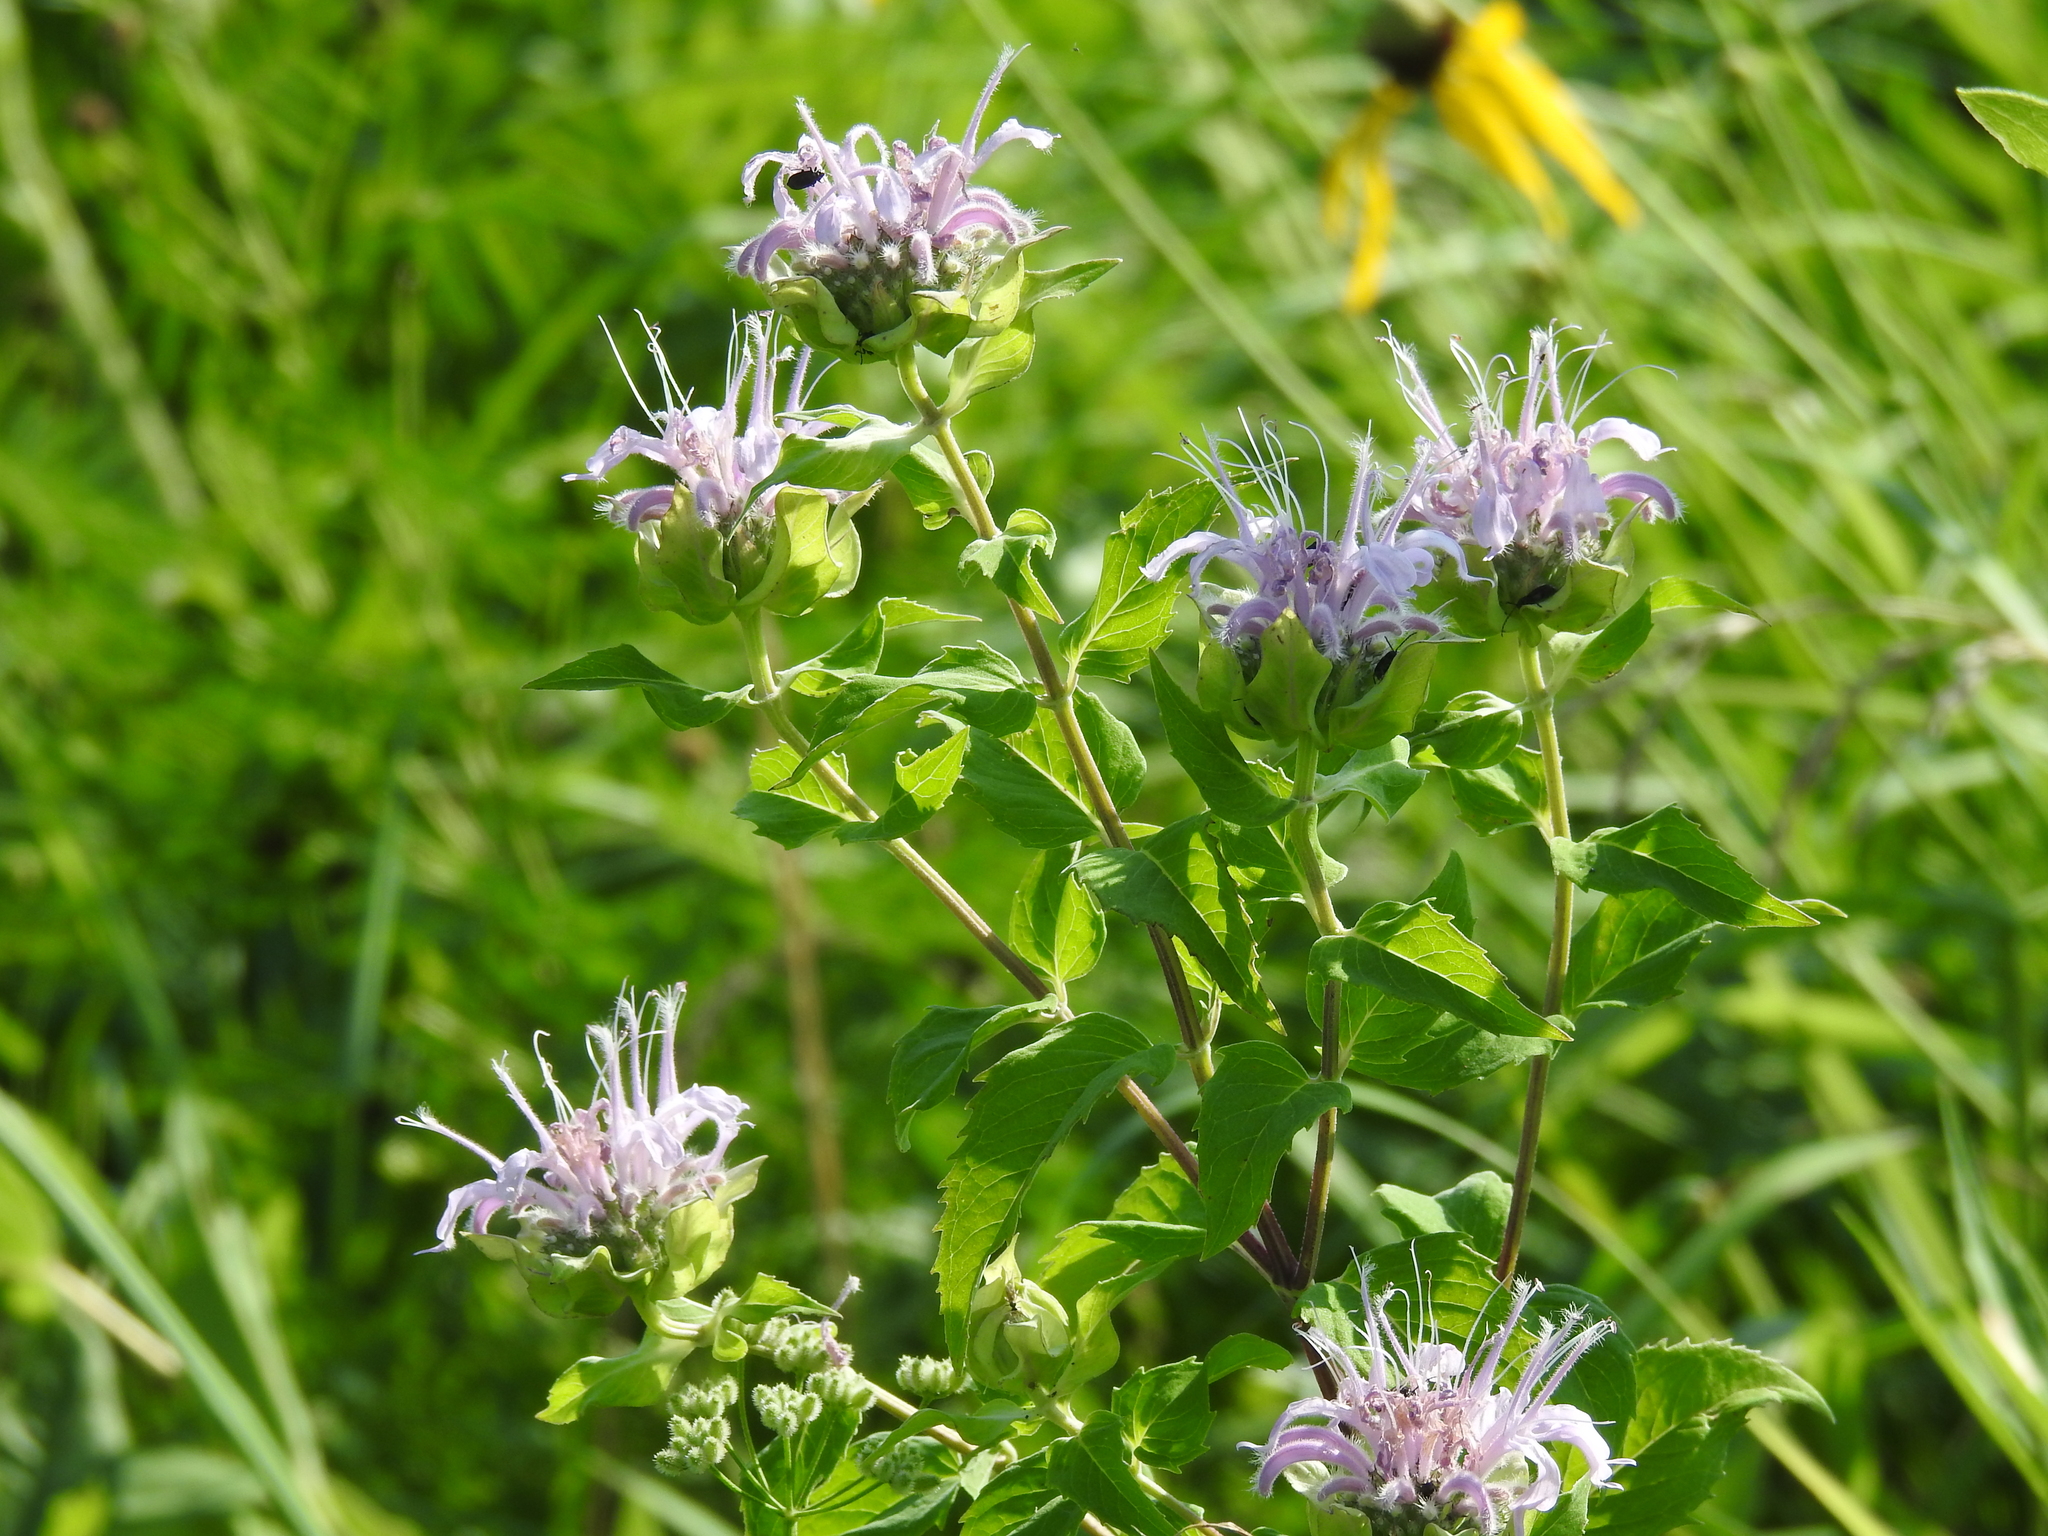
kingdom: Plantae
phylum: Tracheophyta
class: Magnoliopsida
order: Lamiales
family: Lamiaceae
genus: Monarda
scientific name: Monarda fistulosa
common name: Purple beebalm
